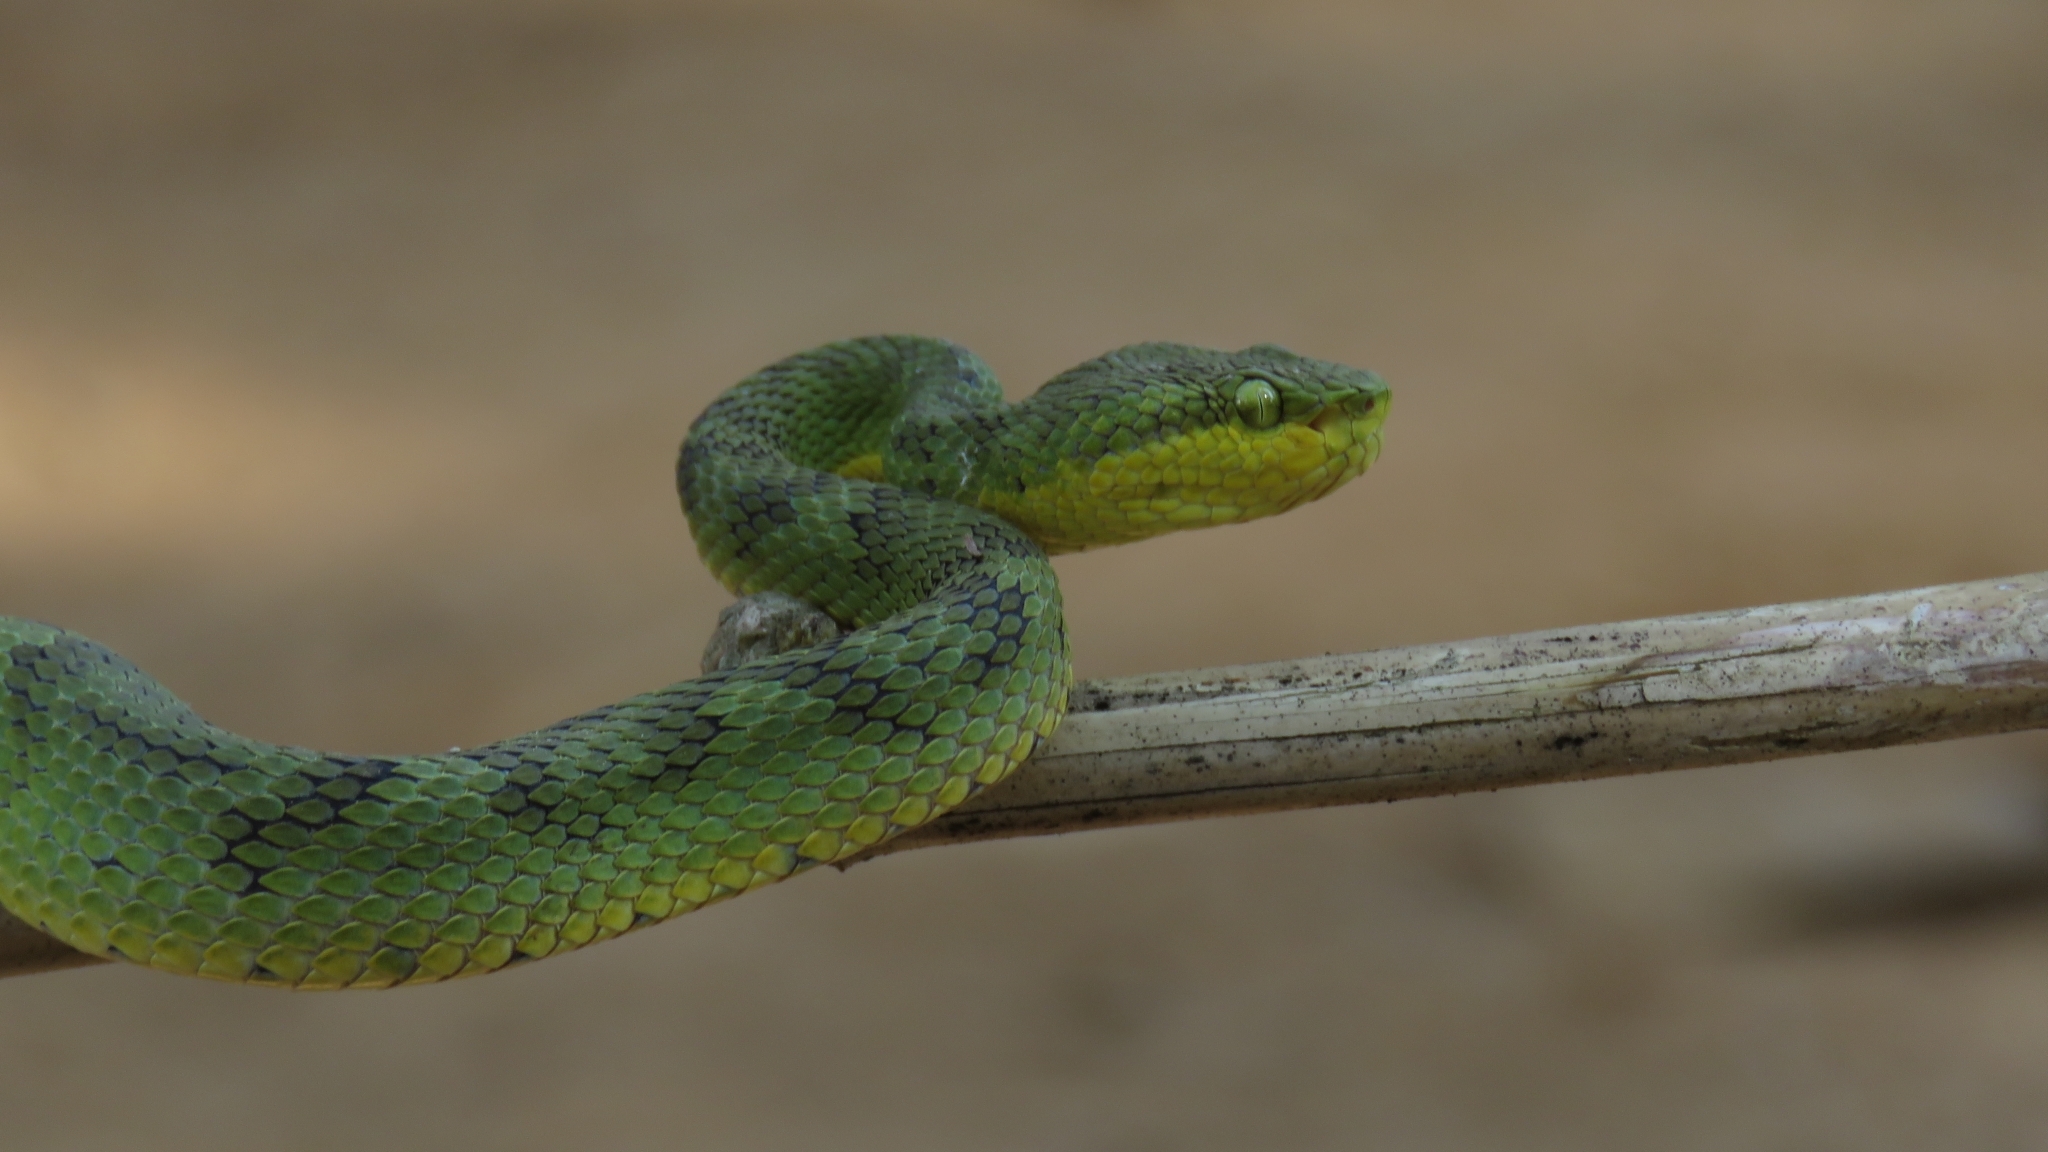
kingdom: Animalia
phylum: Chordata
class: Squamata
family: Viperidae
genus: Craspedocephalus
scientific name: Craspedocephalus gramineus
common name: Common bamboo viper
